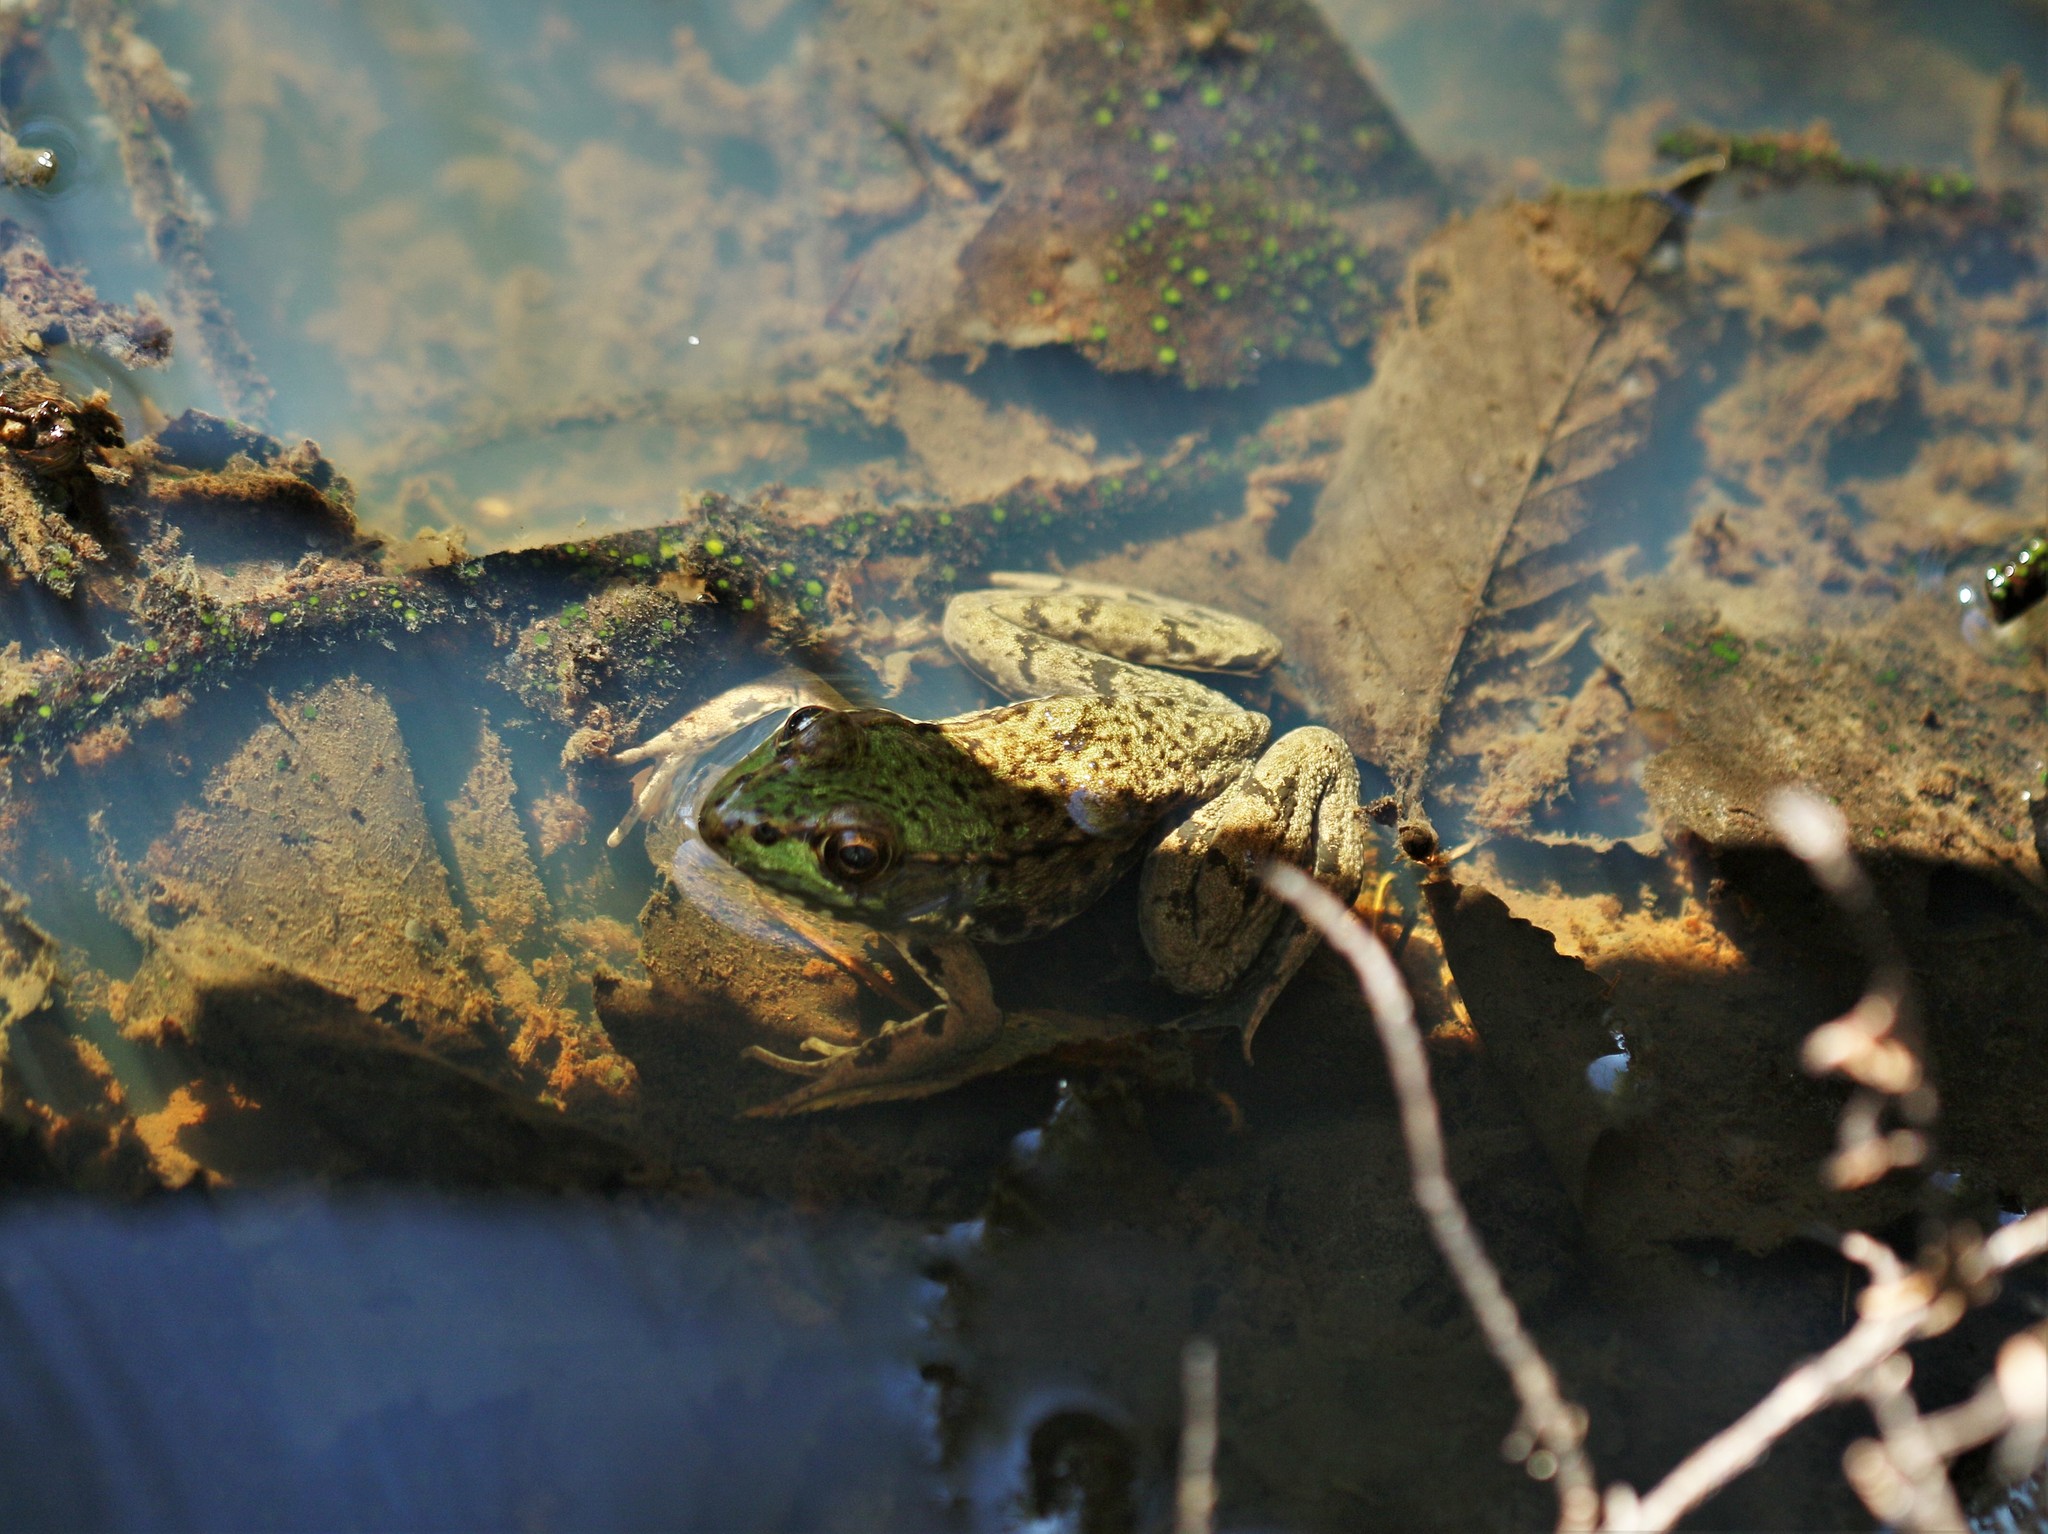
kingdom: Animalia
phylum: Chordata
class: Amphibia
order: Anura
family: Ranidae
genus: Lithobates
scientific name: Lithobates clamitans
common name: Green frog
